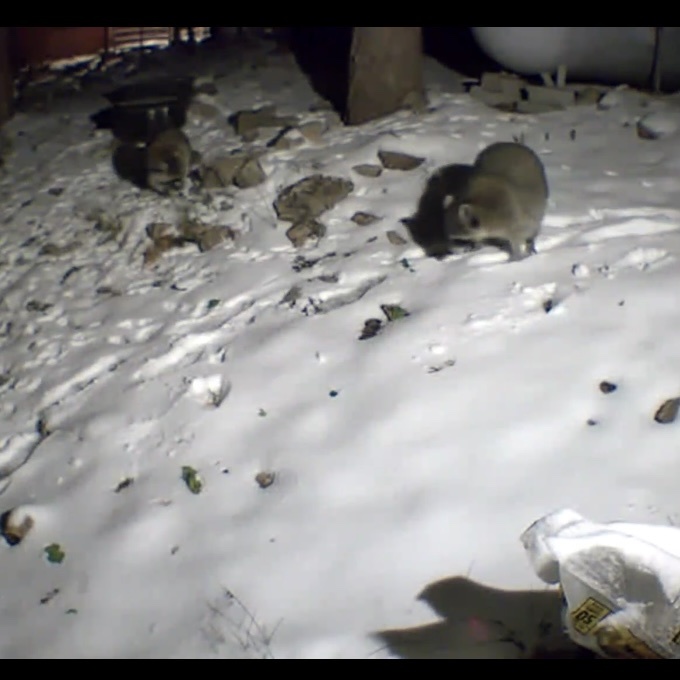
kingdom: Animalia
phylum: Chordata
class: Mammalia
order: Carnivora
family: Procyonidae
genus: Procyon
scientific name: Procyon lotor
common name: Raccoon
